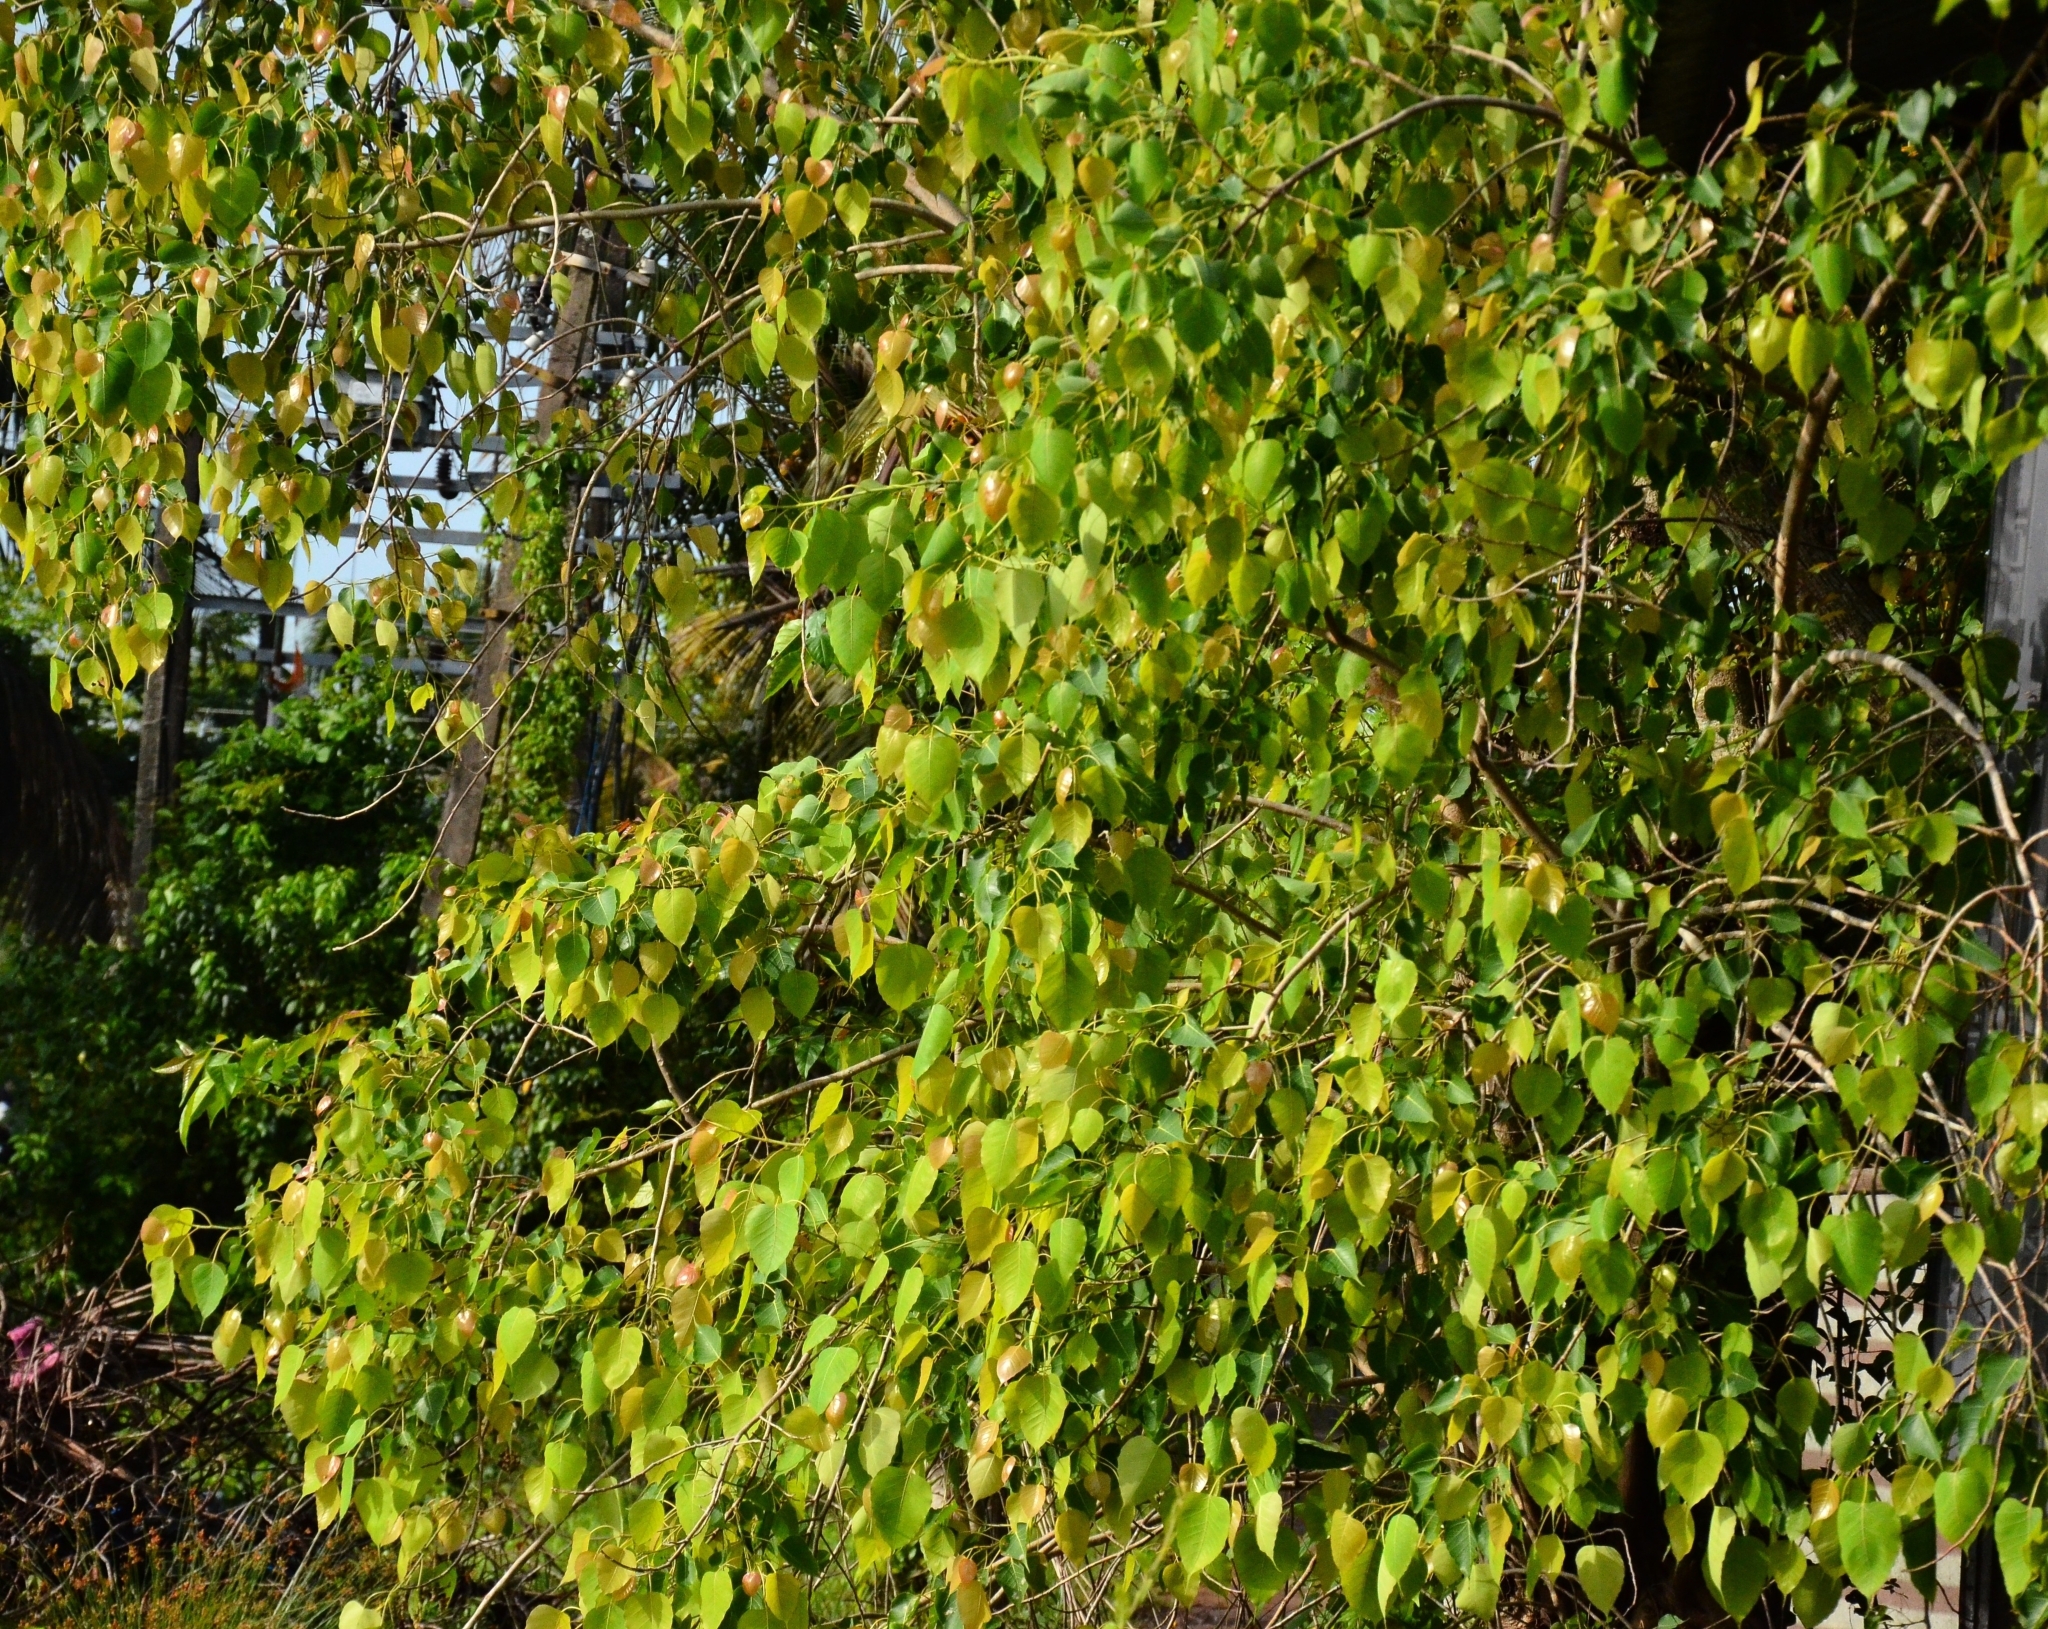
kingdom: Plantae
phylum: Tracheophyta
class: Magnoliopsida
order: Rosales
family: Moraceae
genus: Ficus
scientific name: Ficus religiosa
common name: Bodhi tree
